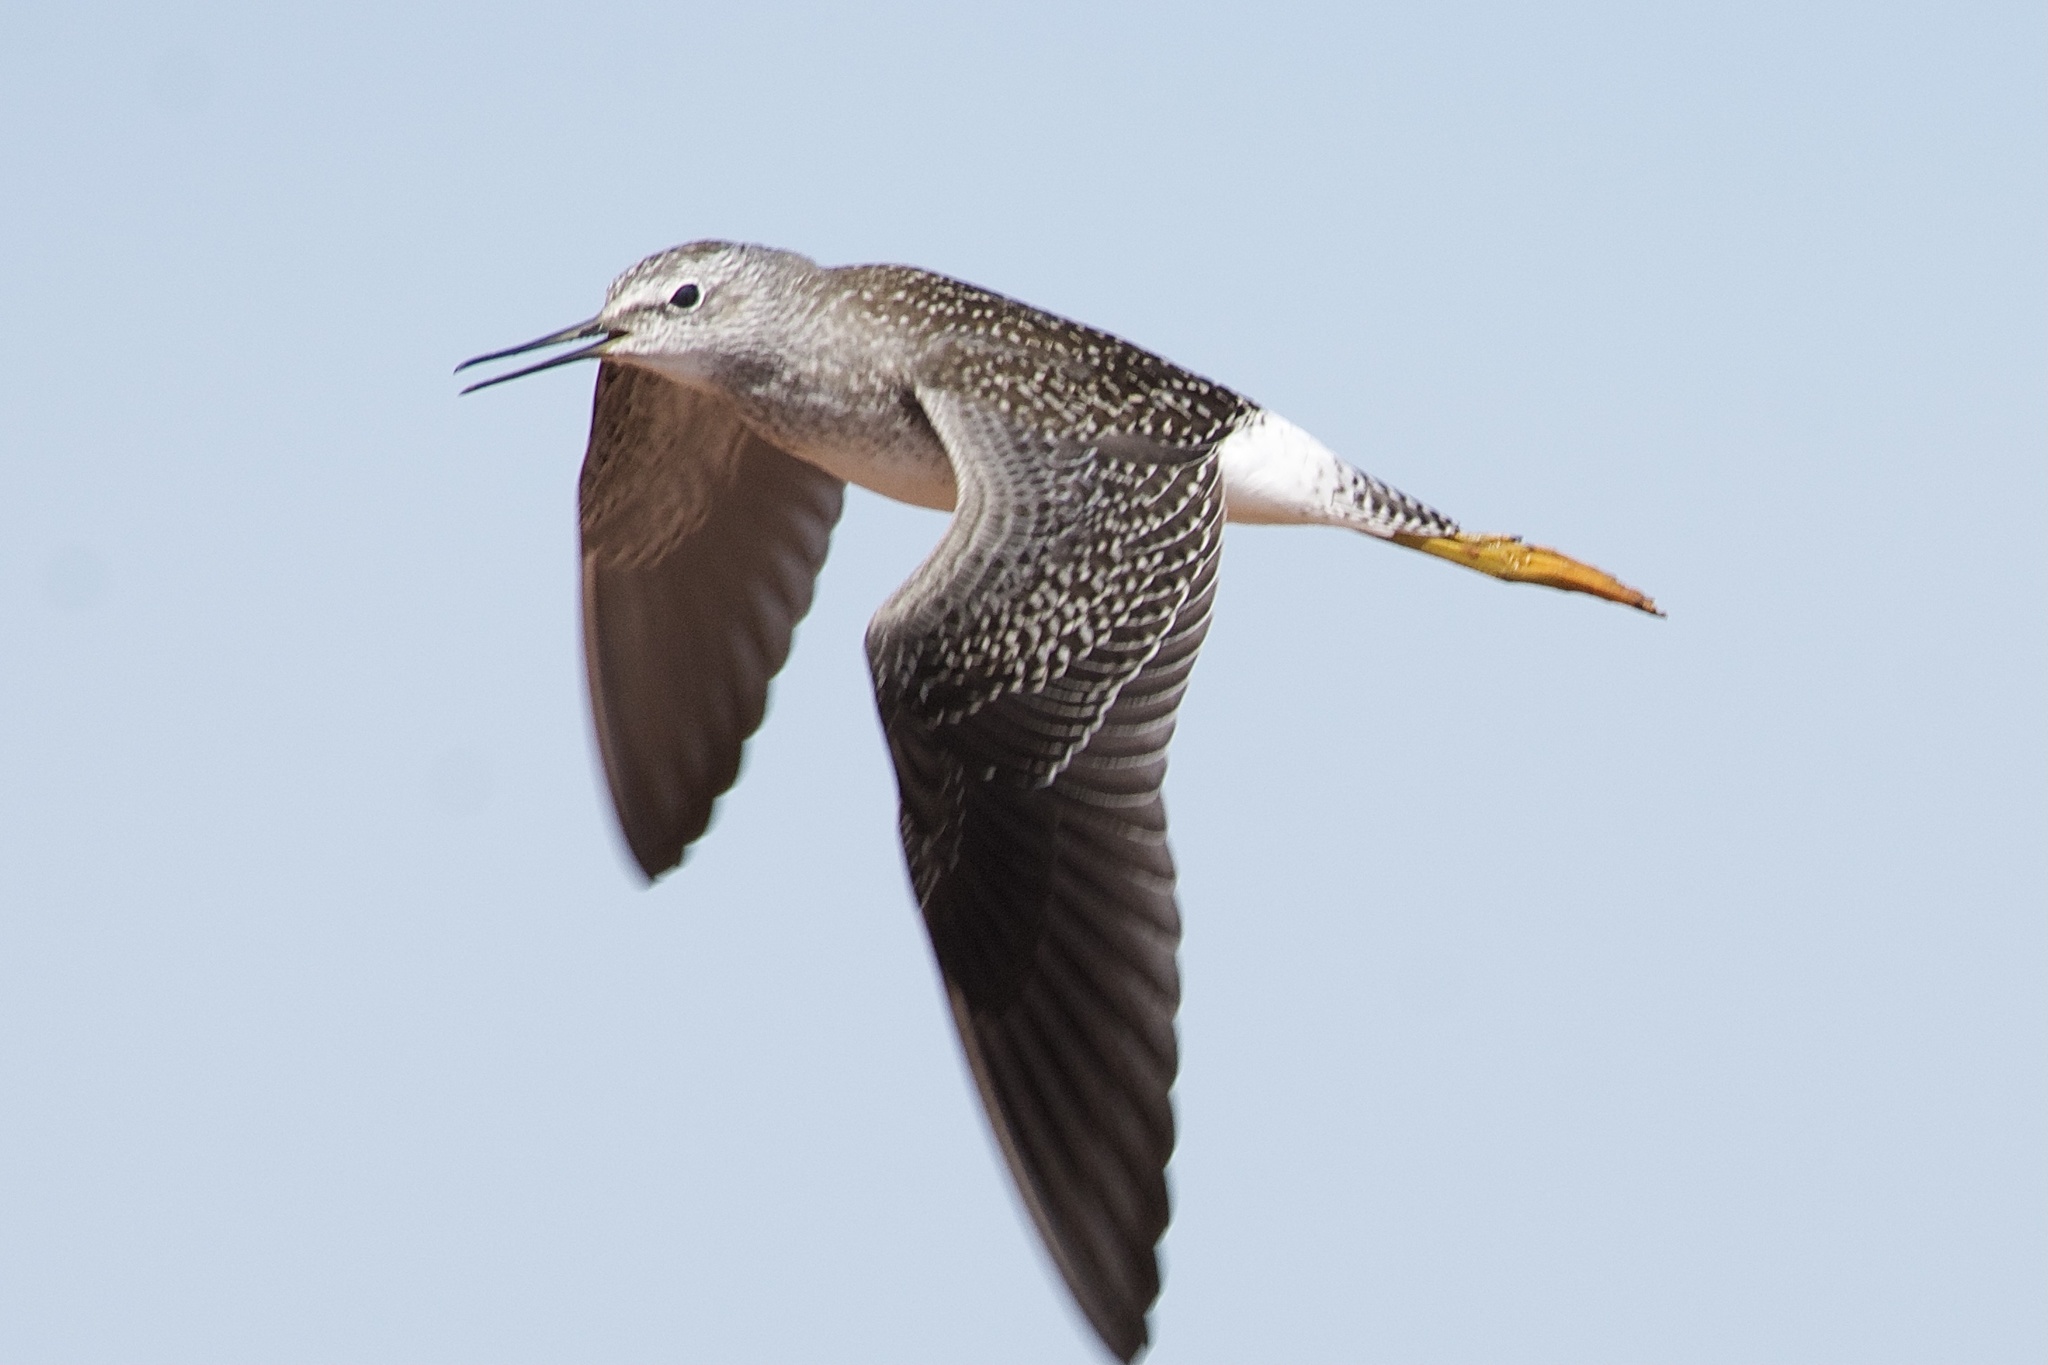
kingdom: Animalia
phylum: Chordata
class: Aves
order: Charadriiformes
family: Scolopacidae
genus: Tringa
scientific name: Tringa flavipes
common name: Lesser yellowlegs
